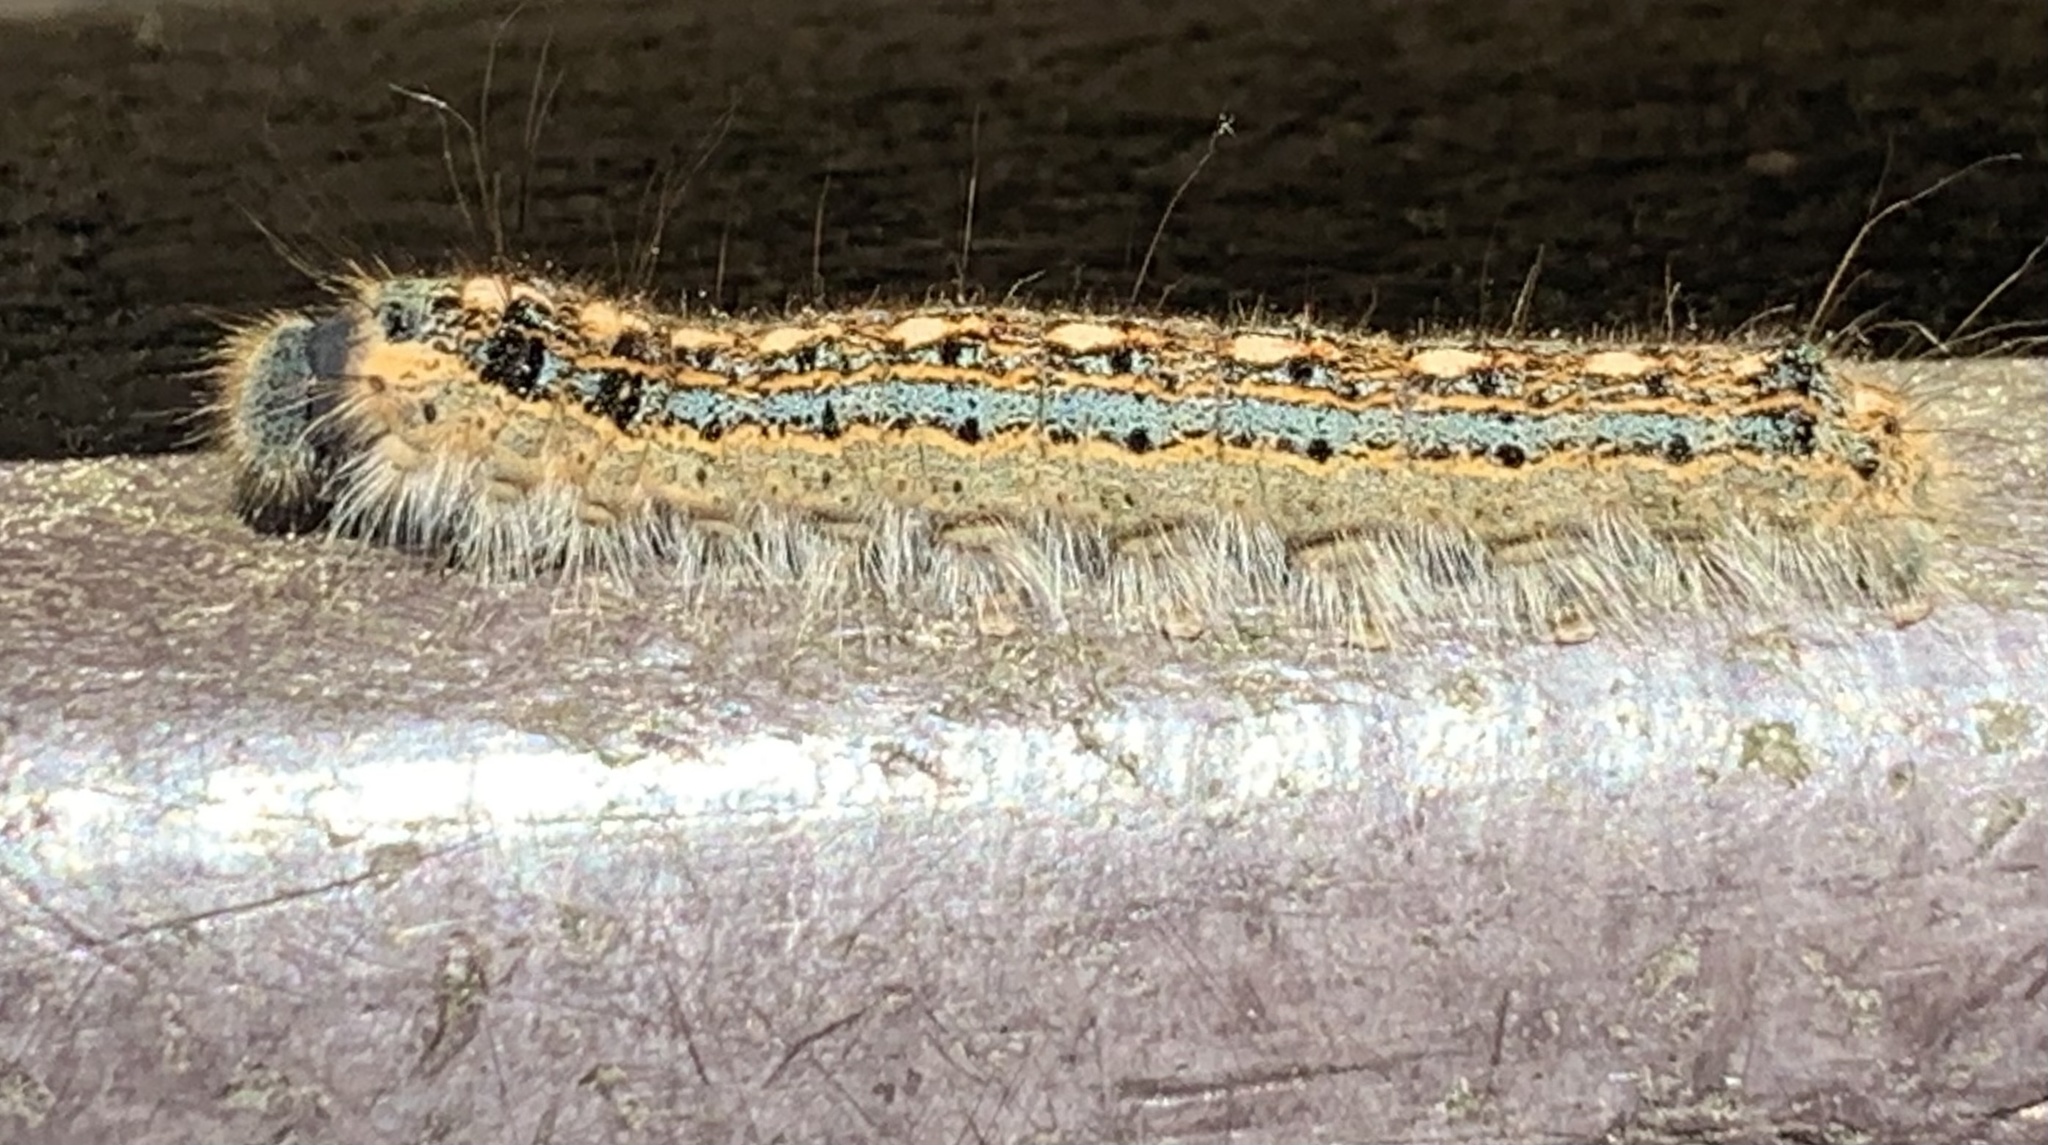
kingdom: Animalia
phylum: Arthropoda
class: Insecta
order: Lepidoptera
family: Lasiocampidae
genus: Malacosoma
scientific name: Malacosoma disstria
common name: Forest tent caterpillar
